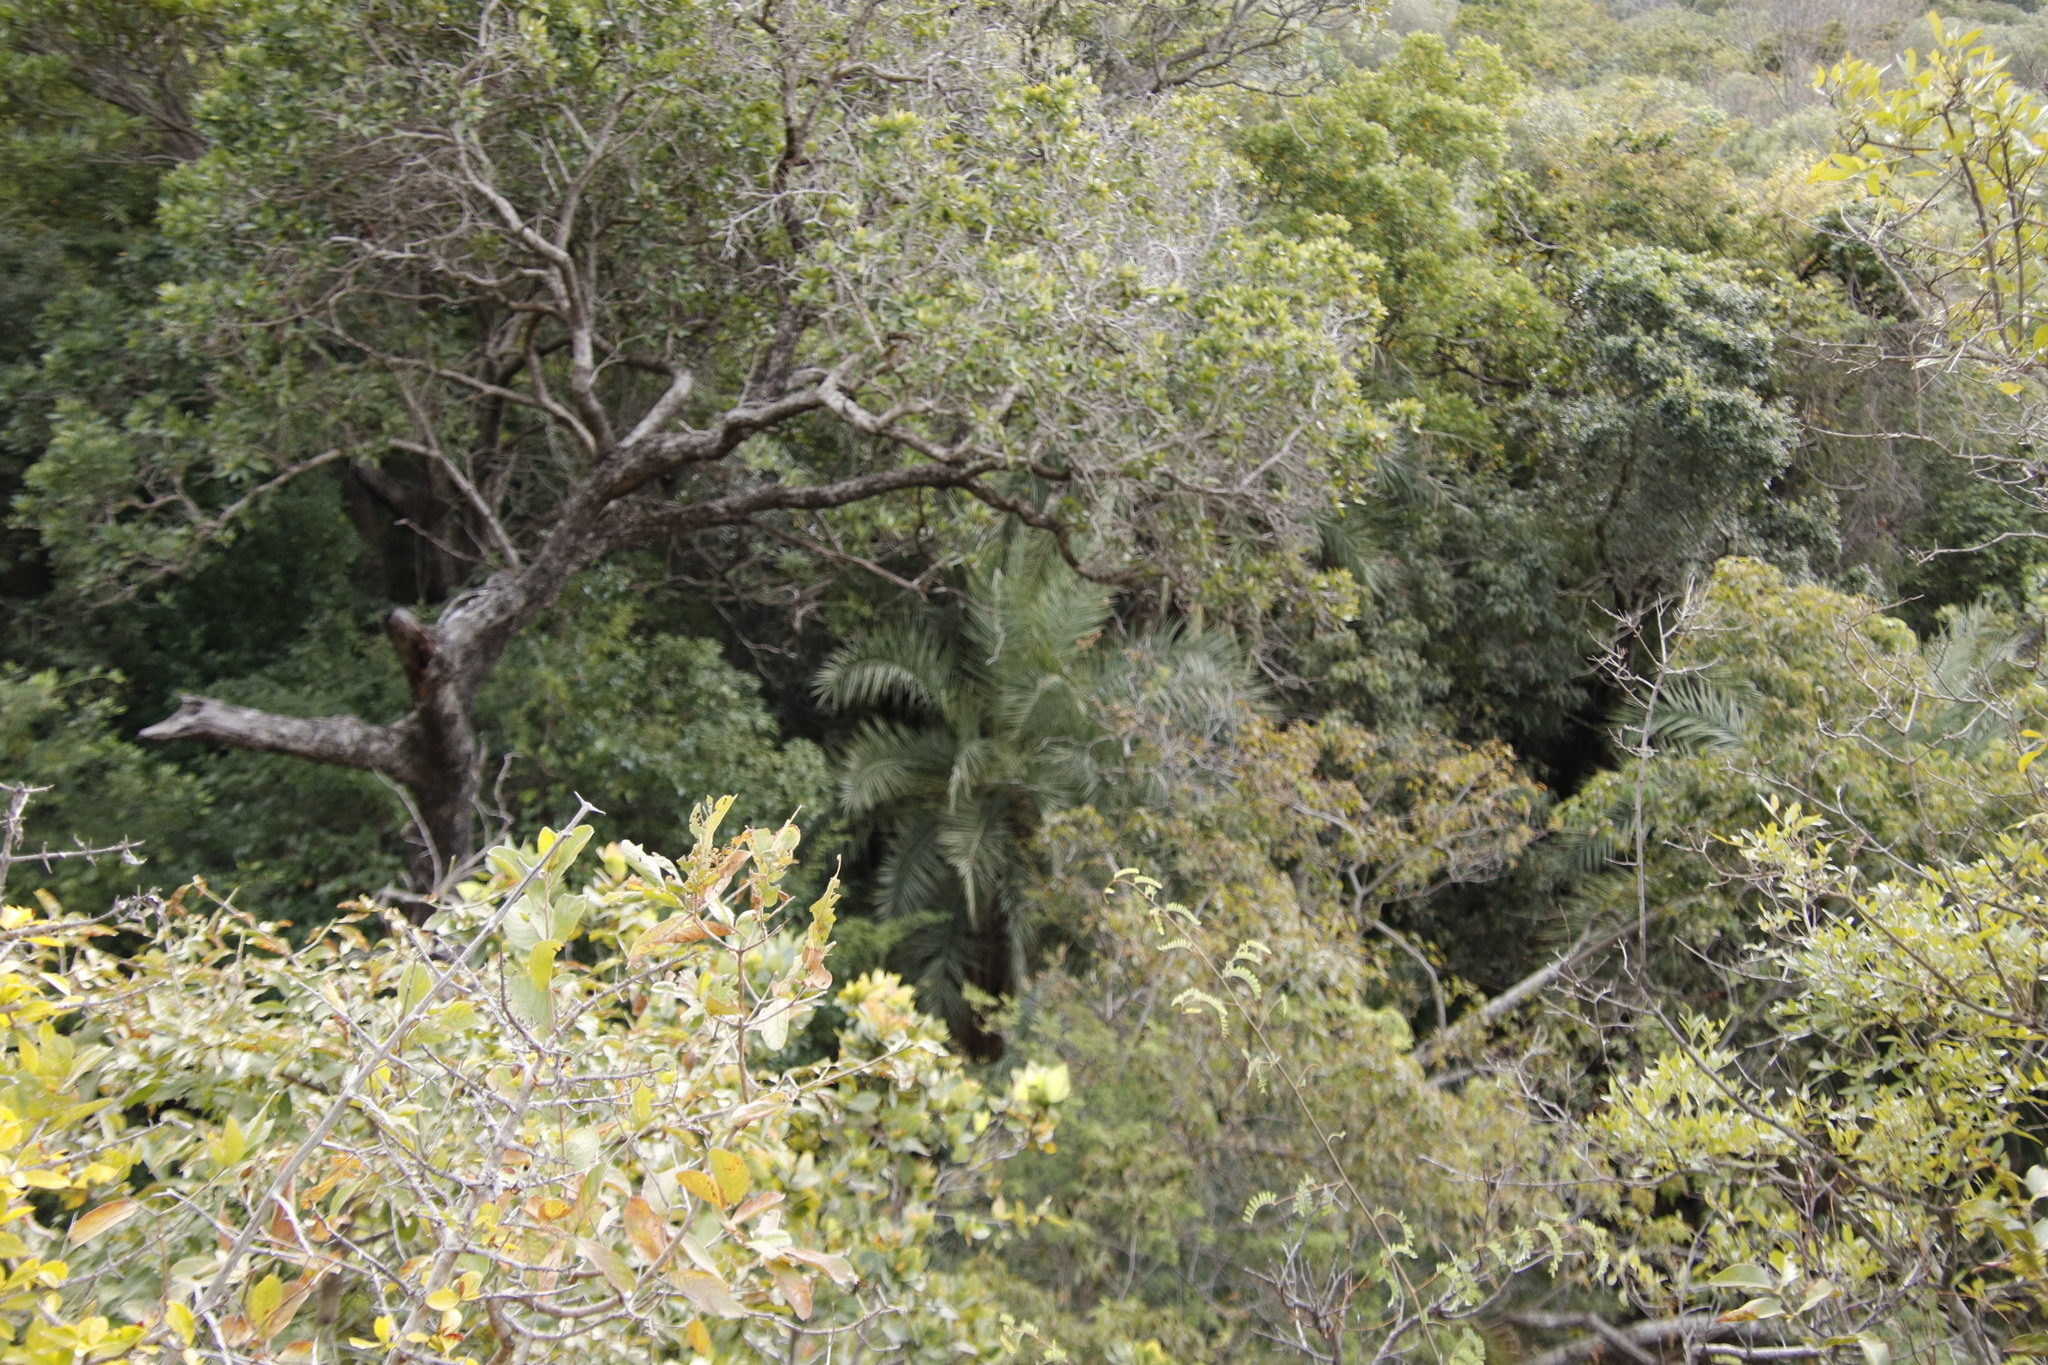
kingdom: Plantae
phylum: Tracheophyta
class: Liliopsida
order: Arecales
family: Arecaceae
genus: Phoenix
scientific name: Phoenix reclinata
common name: Senegal date palm
